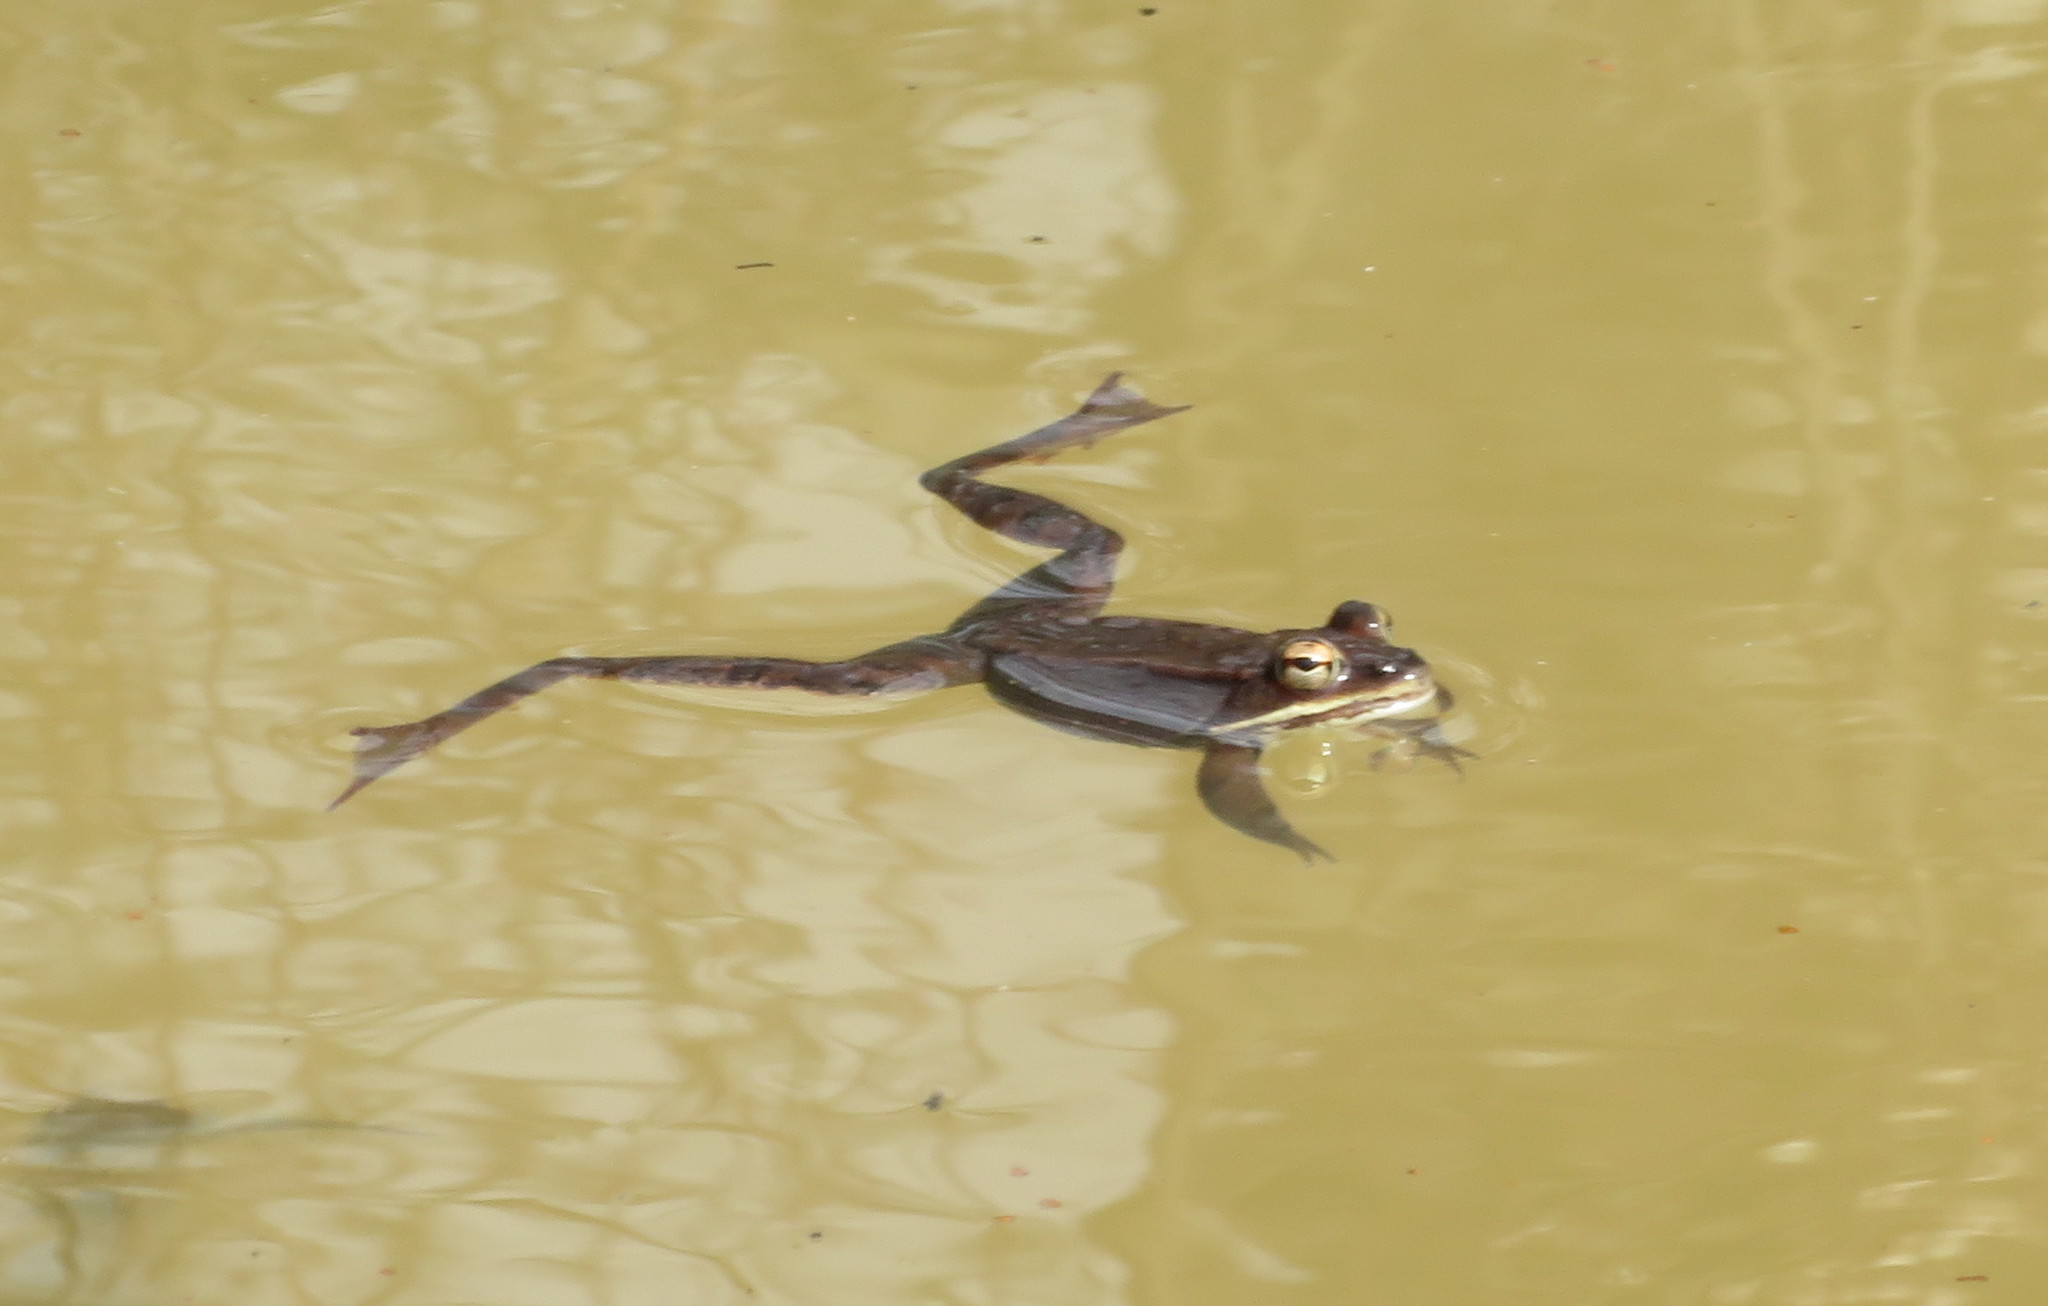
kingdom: Animalia
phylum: Chordata
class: Amphibia
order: Anura
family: Ranidae
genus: Lithobates
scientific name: Lithobates sylvaticus
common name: Wood frog
